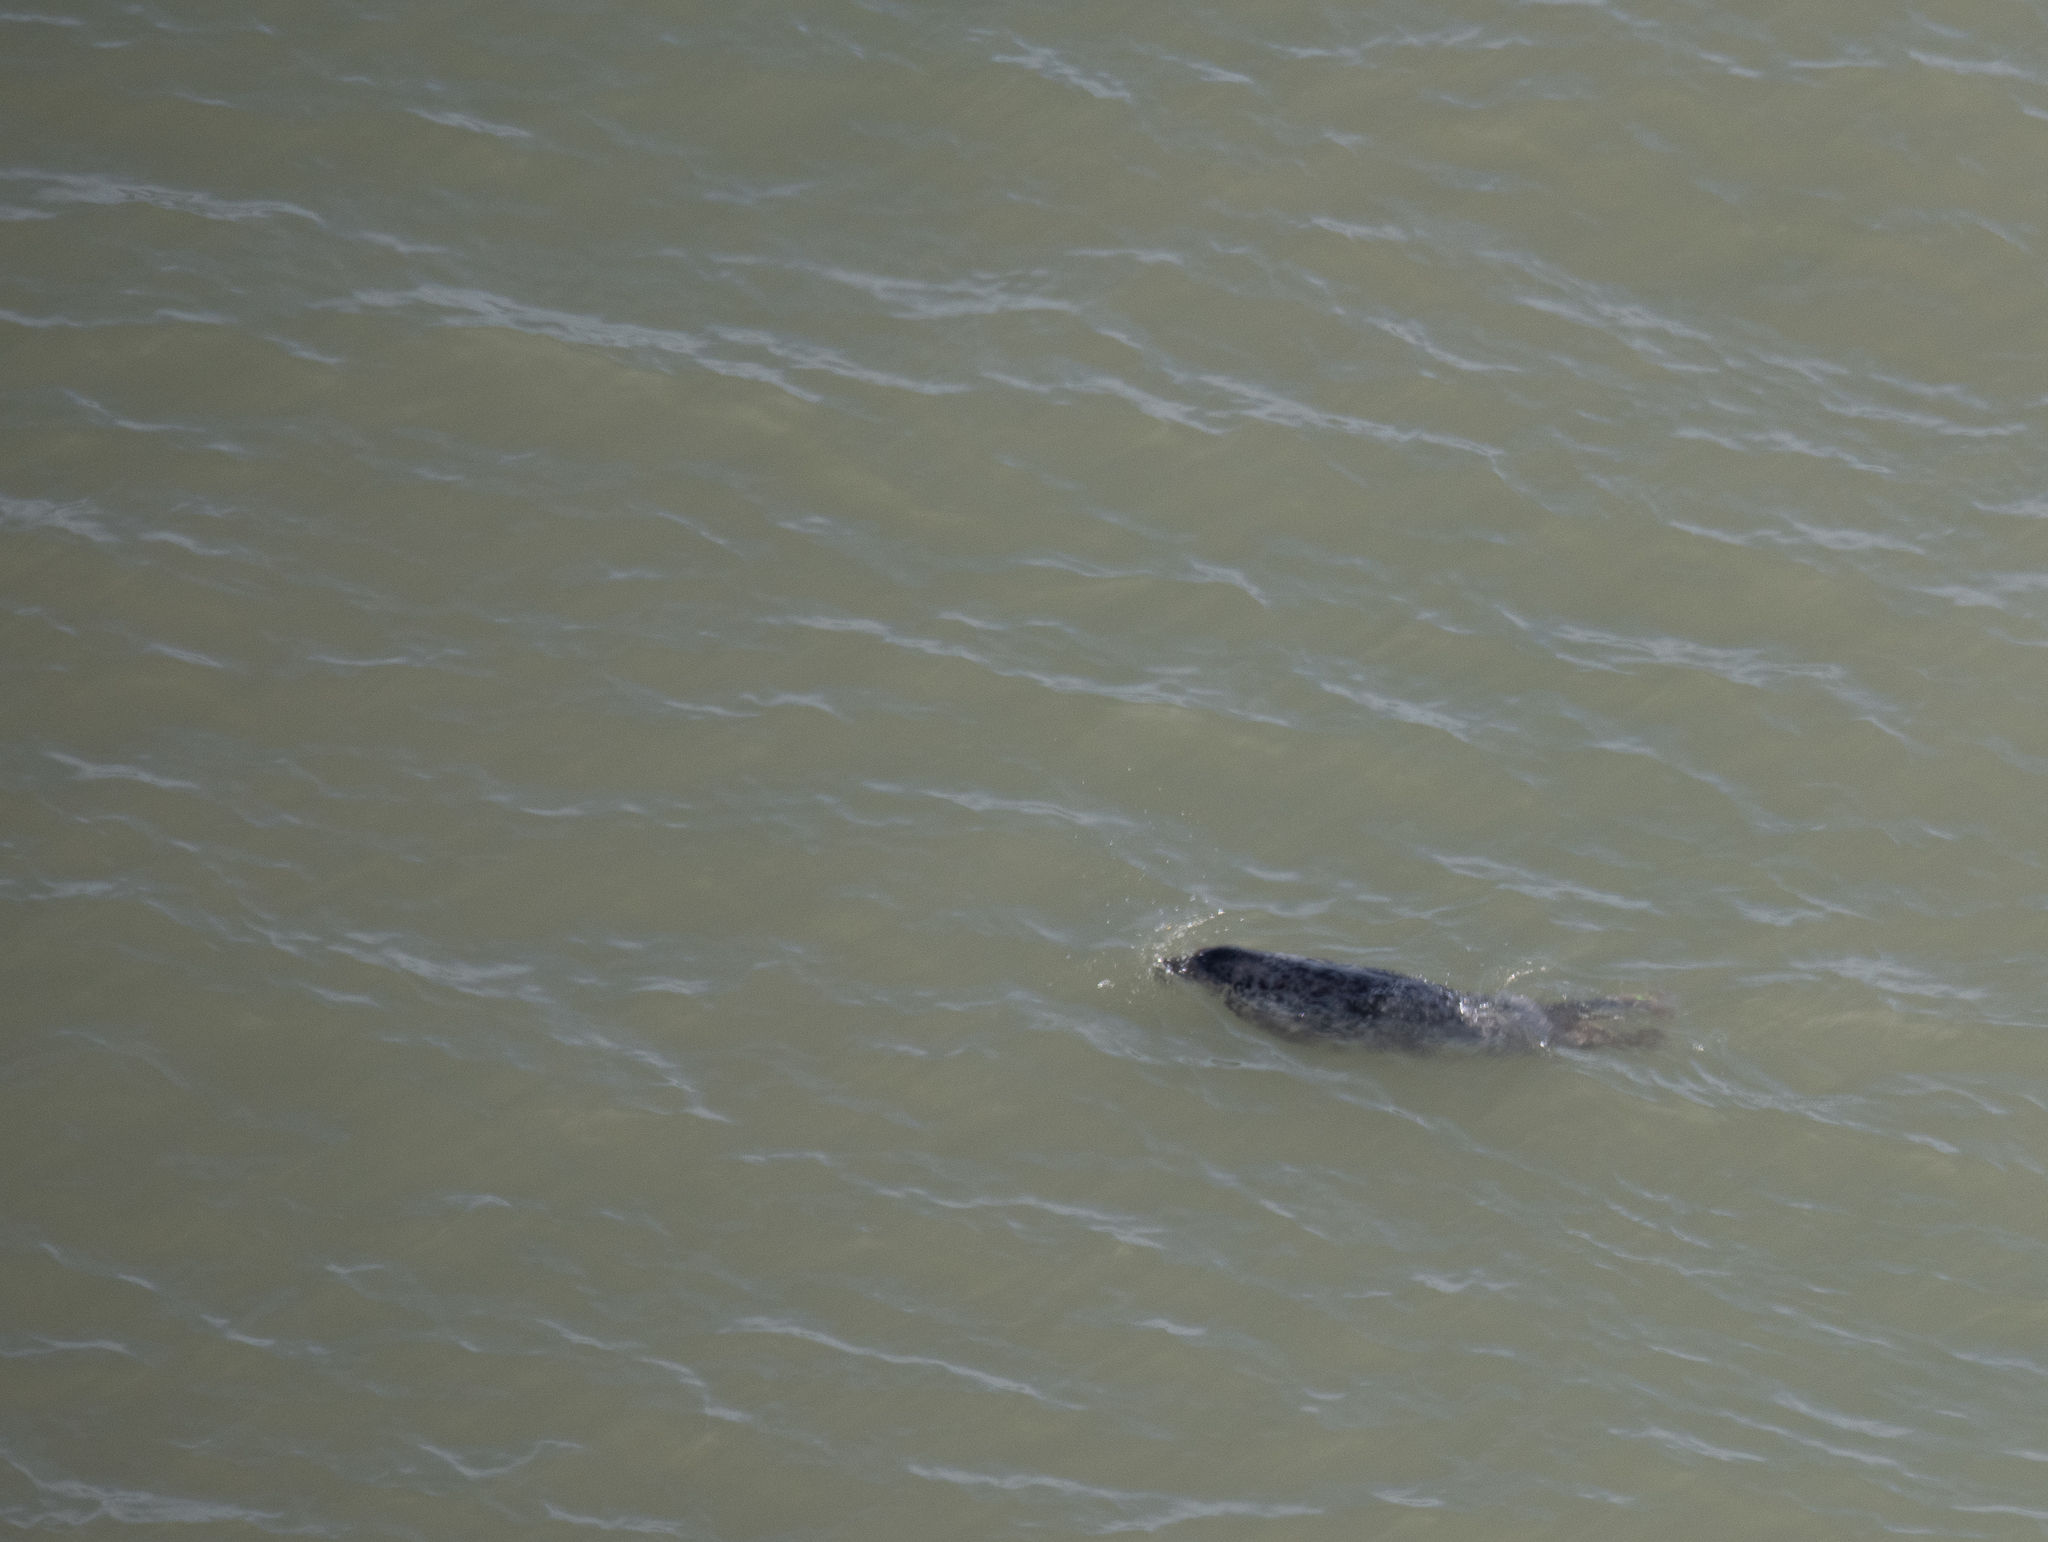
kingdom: Animalia
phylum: Chordata
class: Mammalia
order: Carnivora
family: Phocidae
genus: Halichoerus
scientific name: Halichoerus grypus
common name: Grey seal
